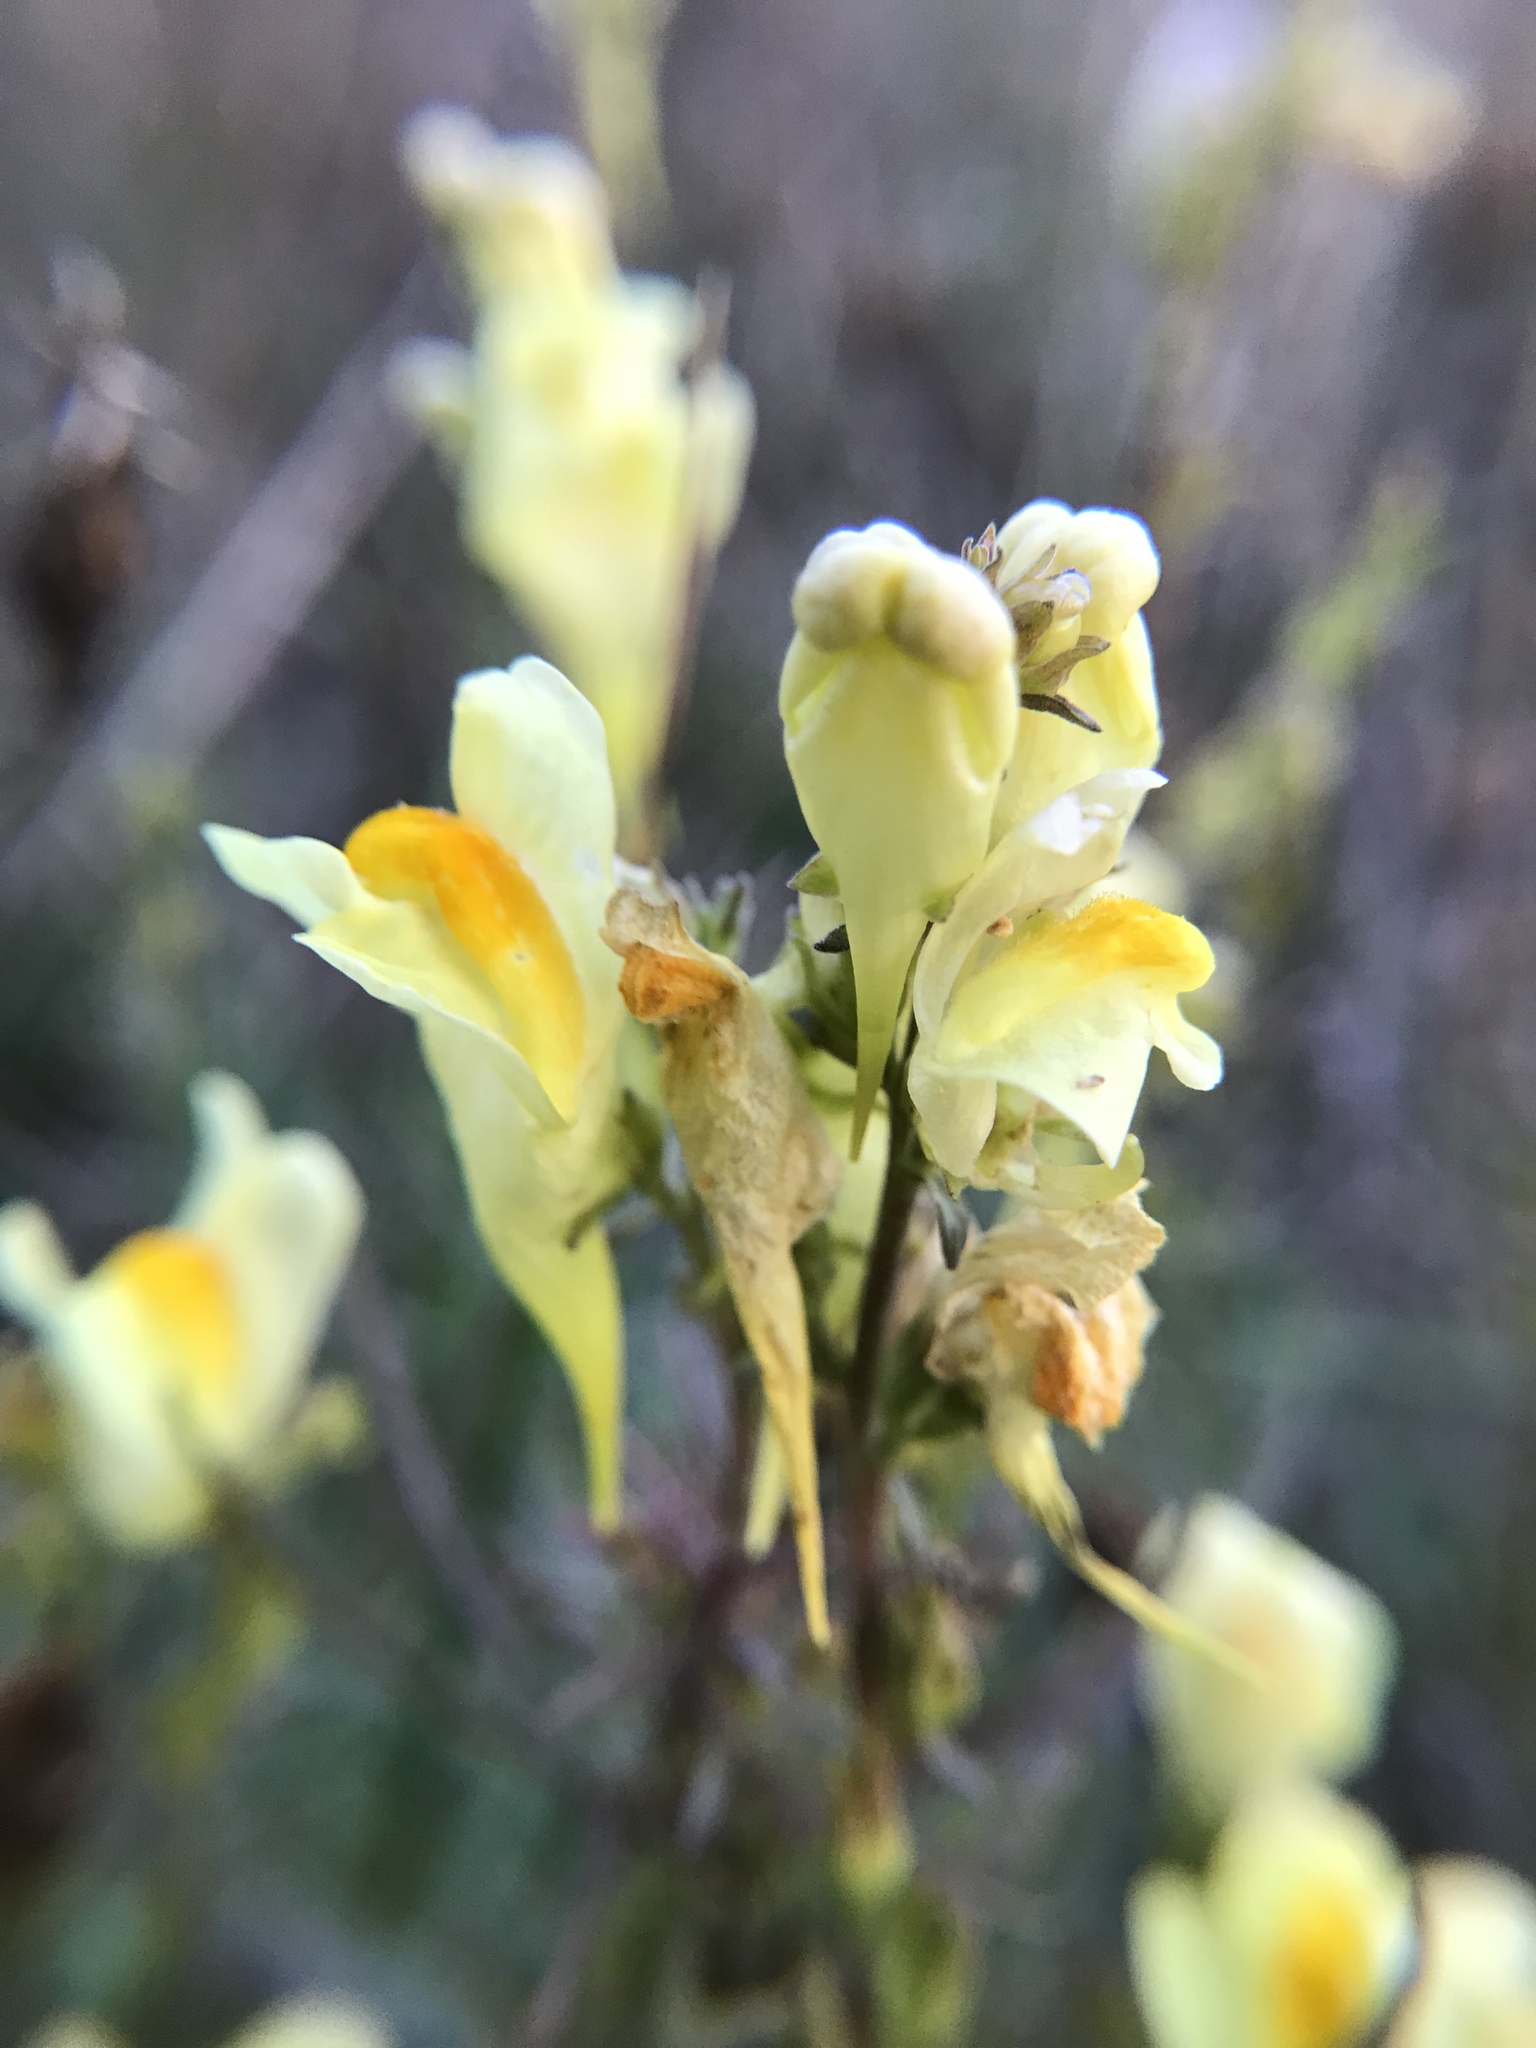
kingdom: Plantae
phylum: Tracheophyta
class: Magnoliopsida
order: Lamiales
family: Plantaginaceae
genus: Linaria
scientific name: Linaria vulgaris
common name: Butter and eggs
